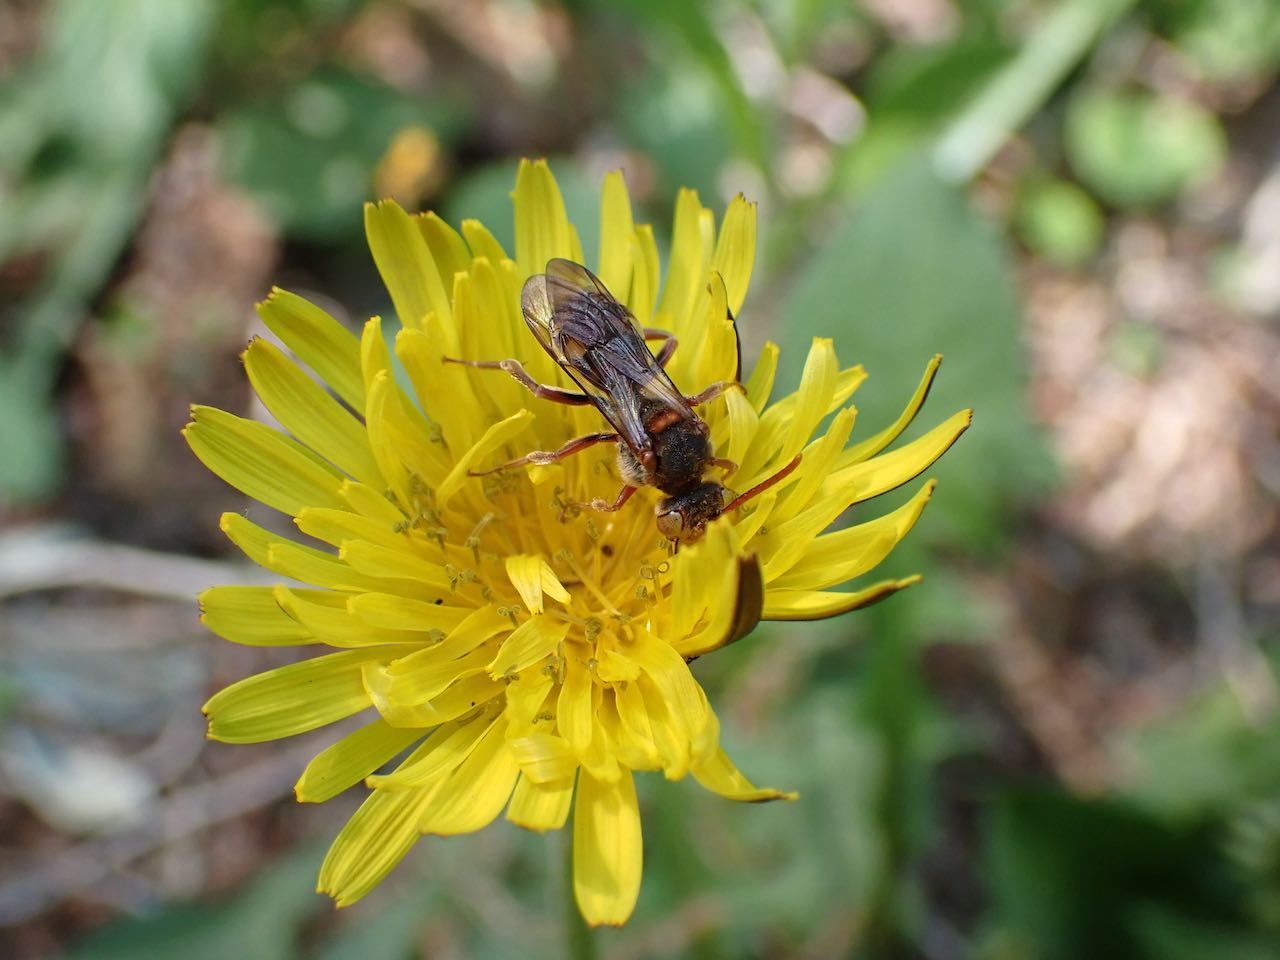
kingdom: Animalia
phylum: Arthropoda
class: Insecta
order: Hymenoptera
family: Apidae
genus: Nomada
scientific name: Nomada
